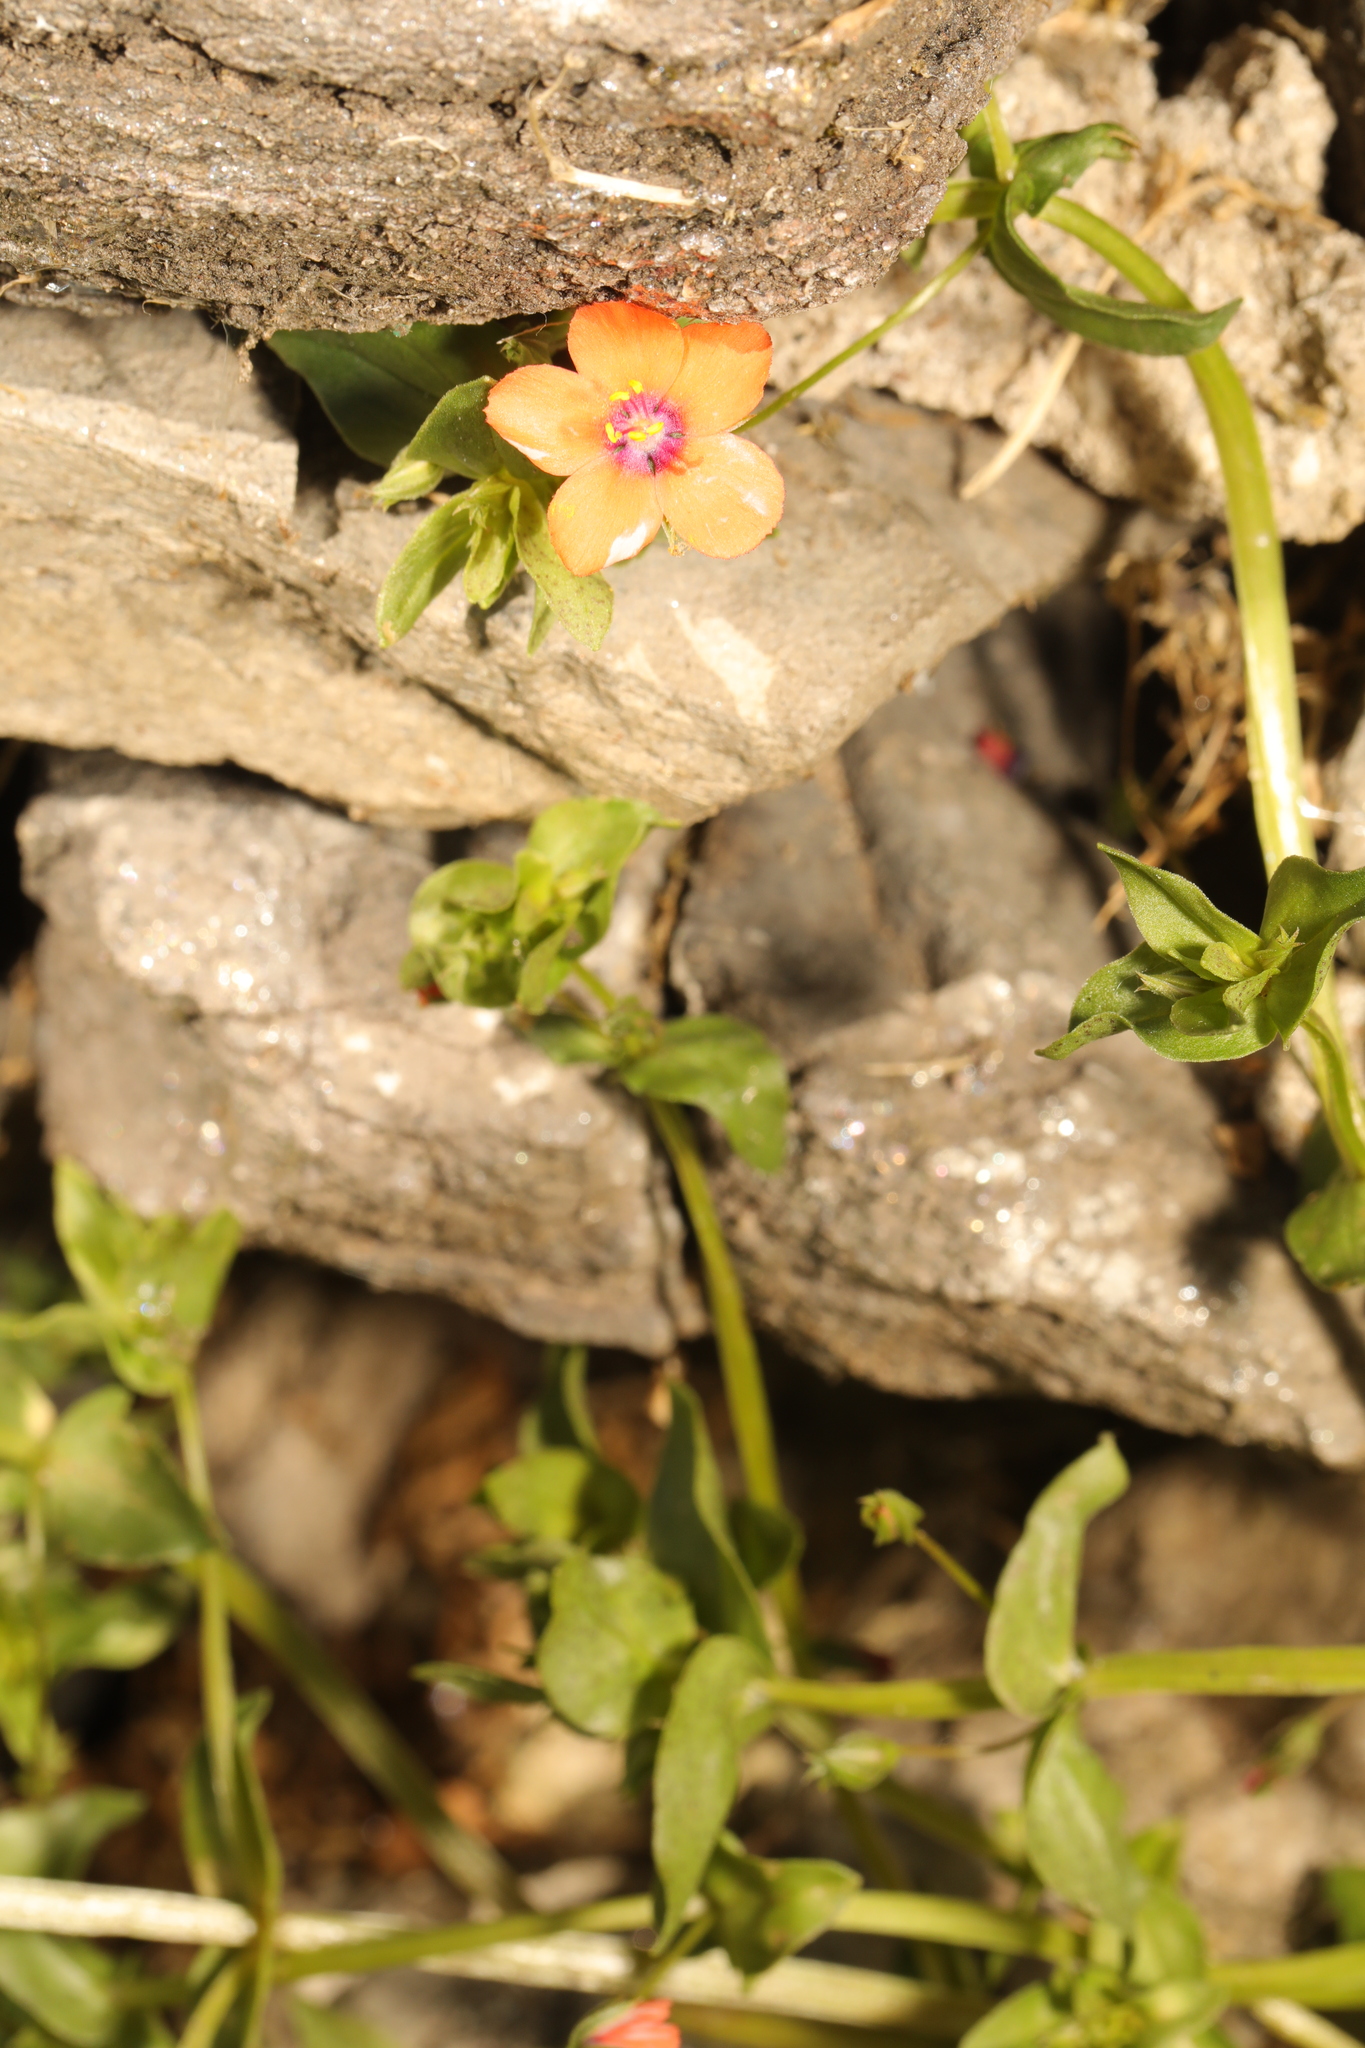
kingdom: Plantae
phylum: Tracheophyta
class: Magnoliopsida
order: Ericales
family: Primulaceae
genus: Lysimachia
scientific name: Lysimachia arvensis
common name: Scarlet pimpernel
